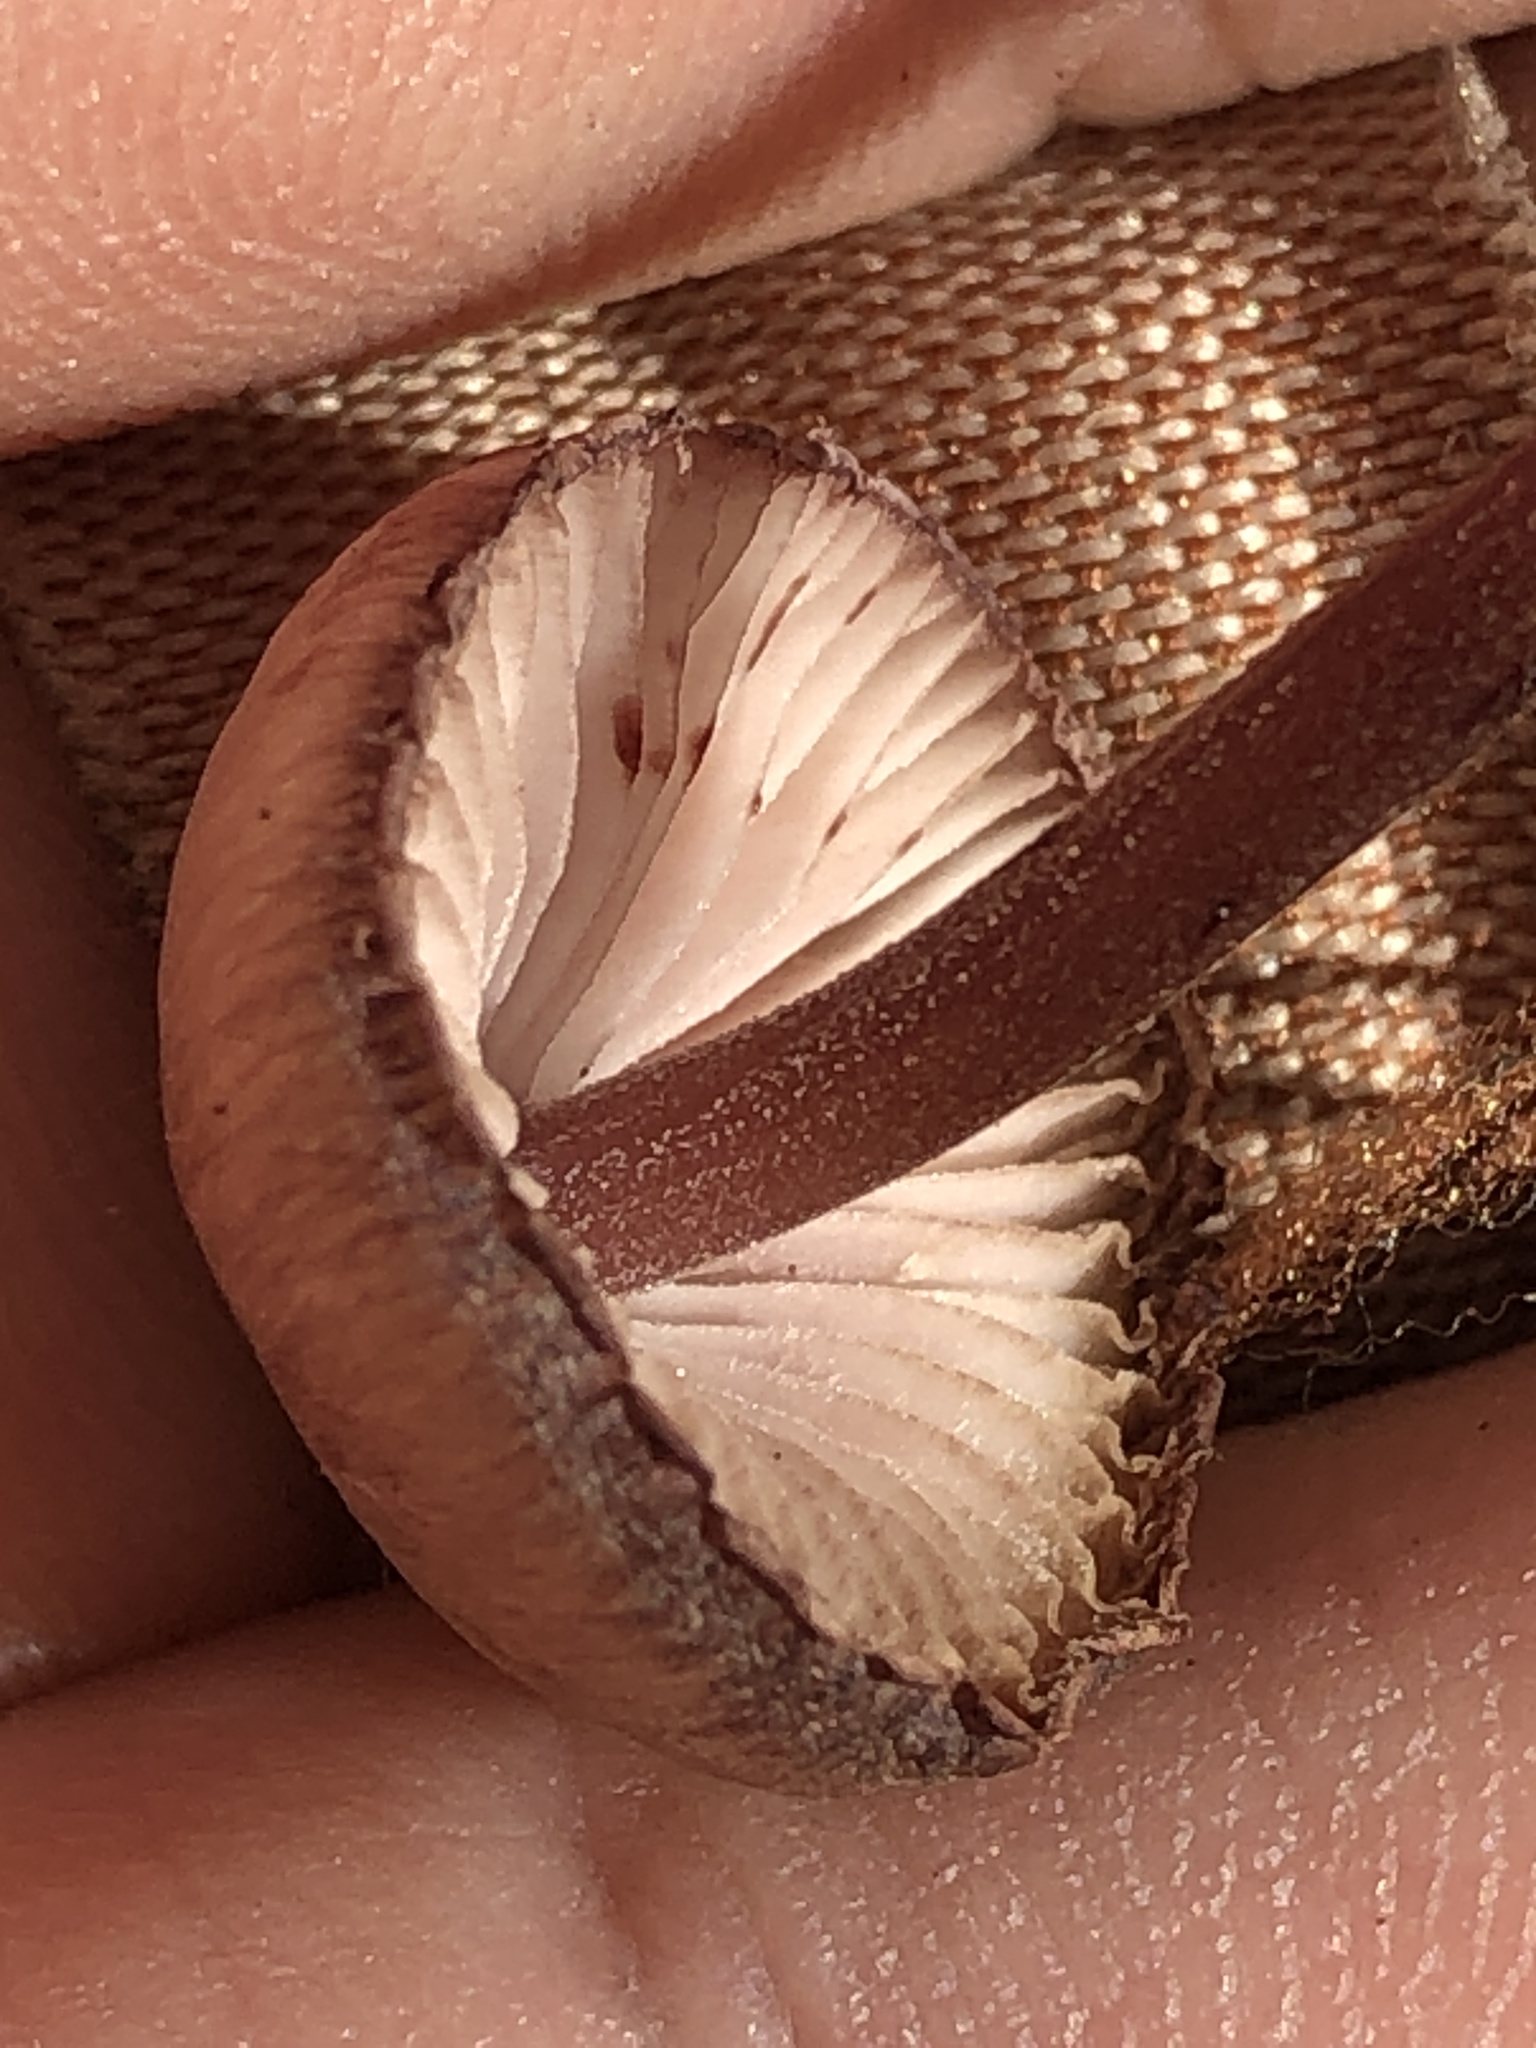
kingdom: Fungi
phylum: Basidiomycota
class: Agaricomycetes
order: Agaricales
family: Mycenaceae
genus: Mycena
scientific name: Mycena haematopus
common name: Burgundydrop bonnet
